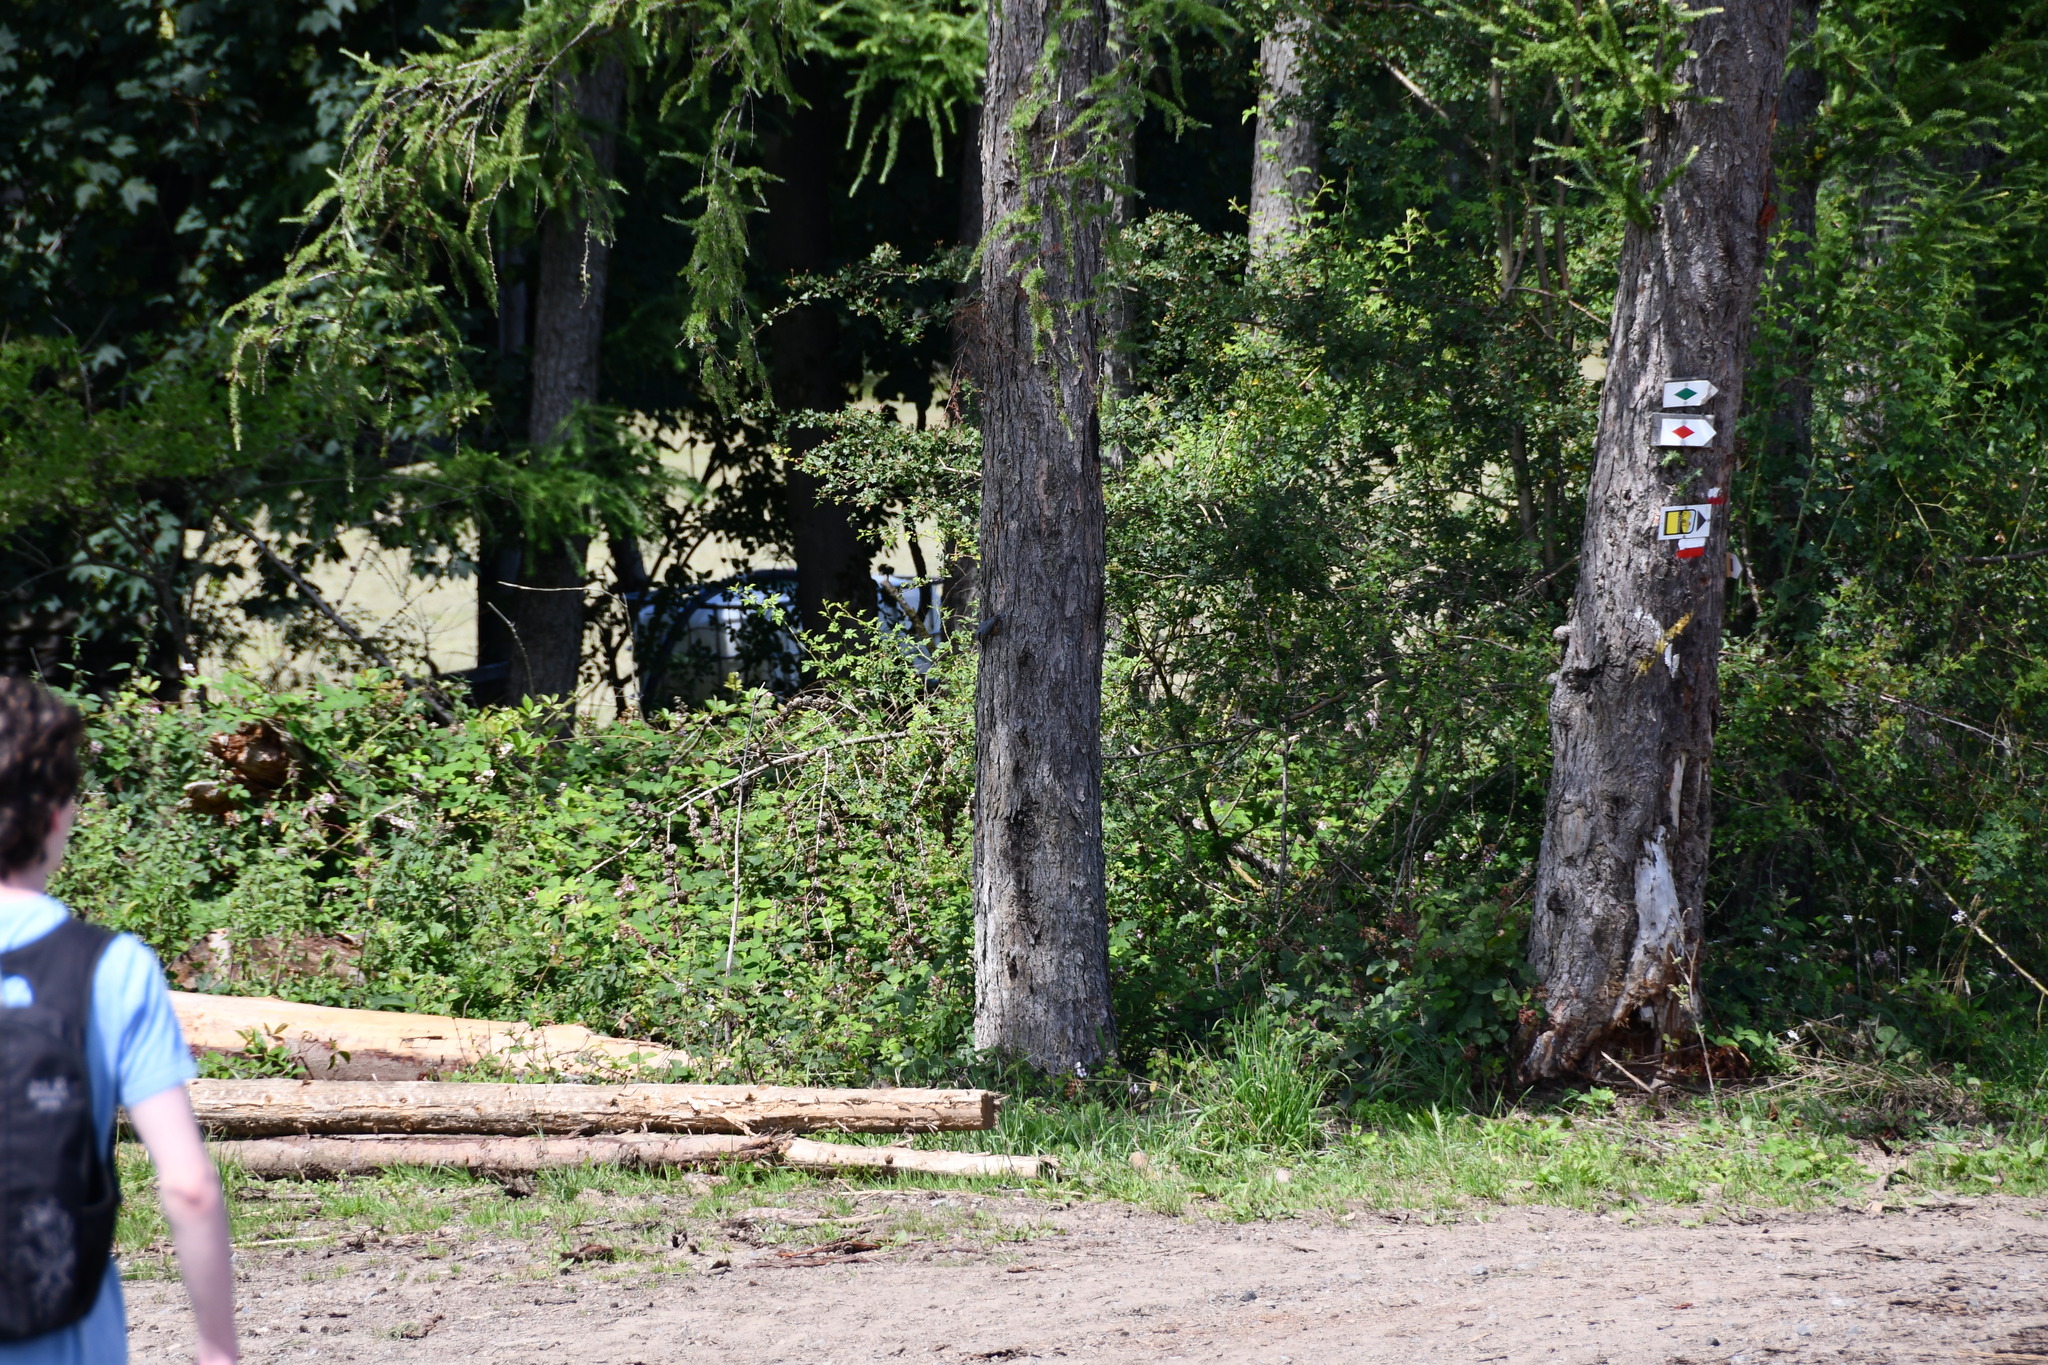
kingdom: Animalia
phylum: Chordata
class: Aves
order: Passeriformes
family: Sittidae
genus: Sitta
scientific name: Sitta europaea
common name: Eurasian nuthatch
